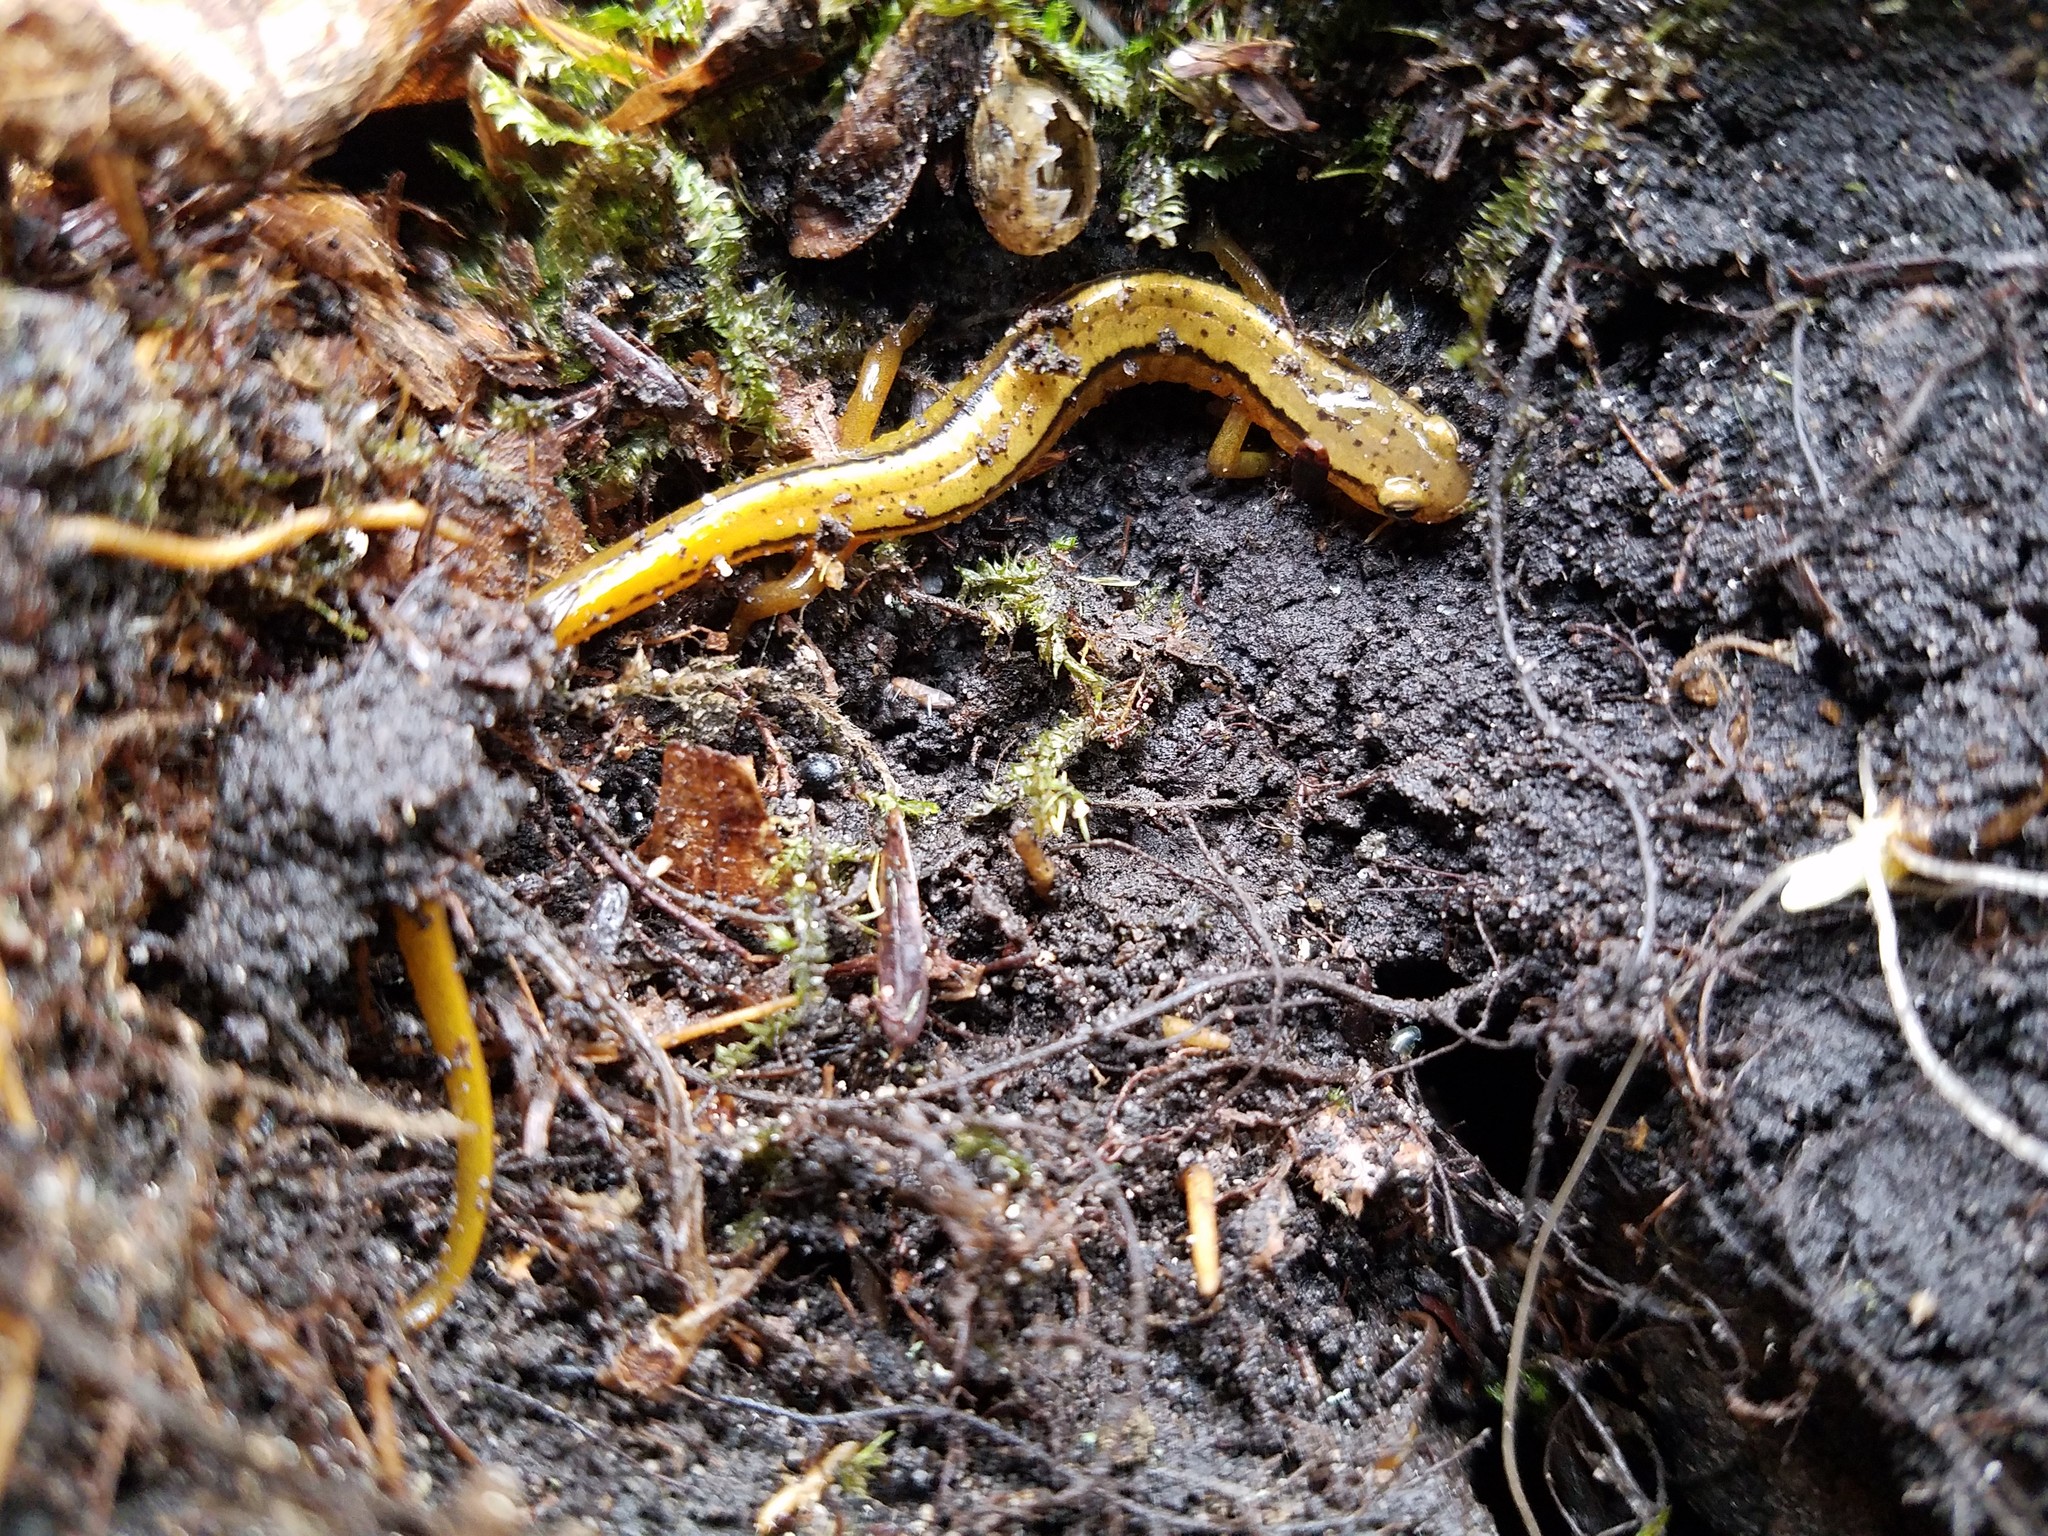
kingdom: Animalia
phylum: Chordata
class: Amphibia
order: Caudata
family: Plethodontidae
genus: Eurycea
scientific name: Eurycea bislineata
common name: Northern two-lined salamander
